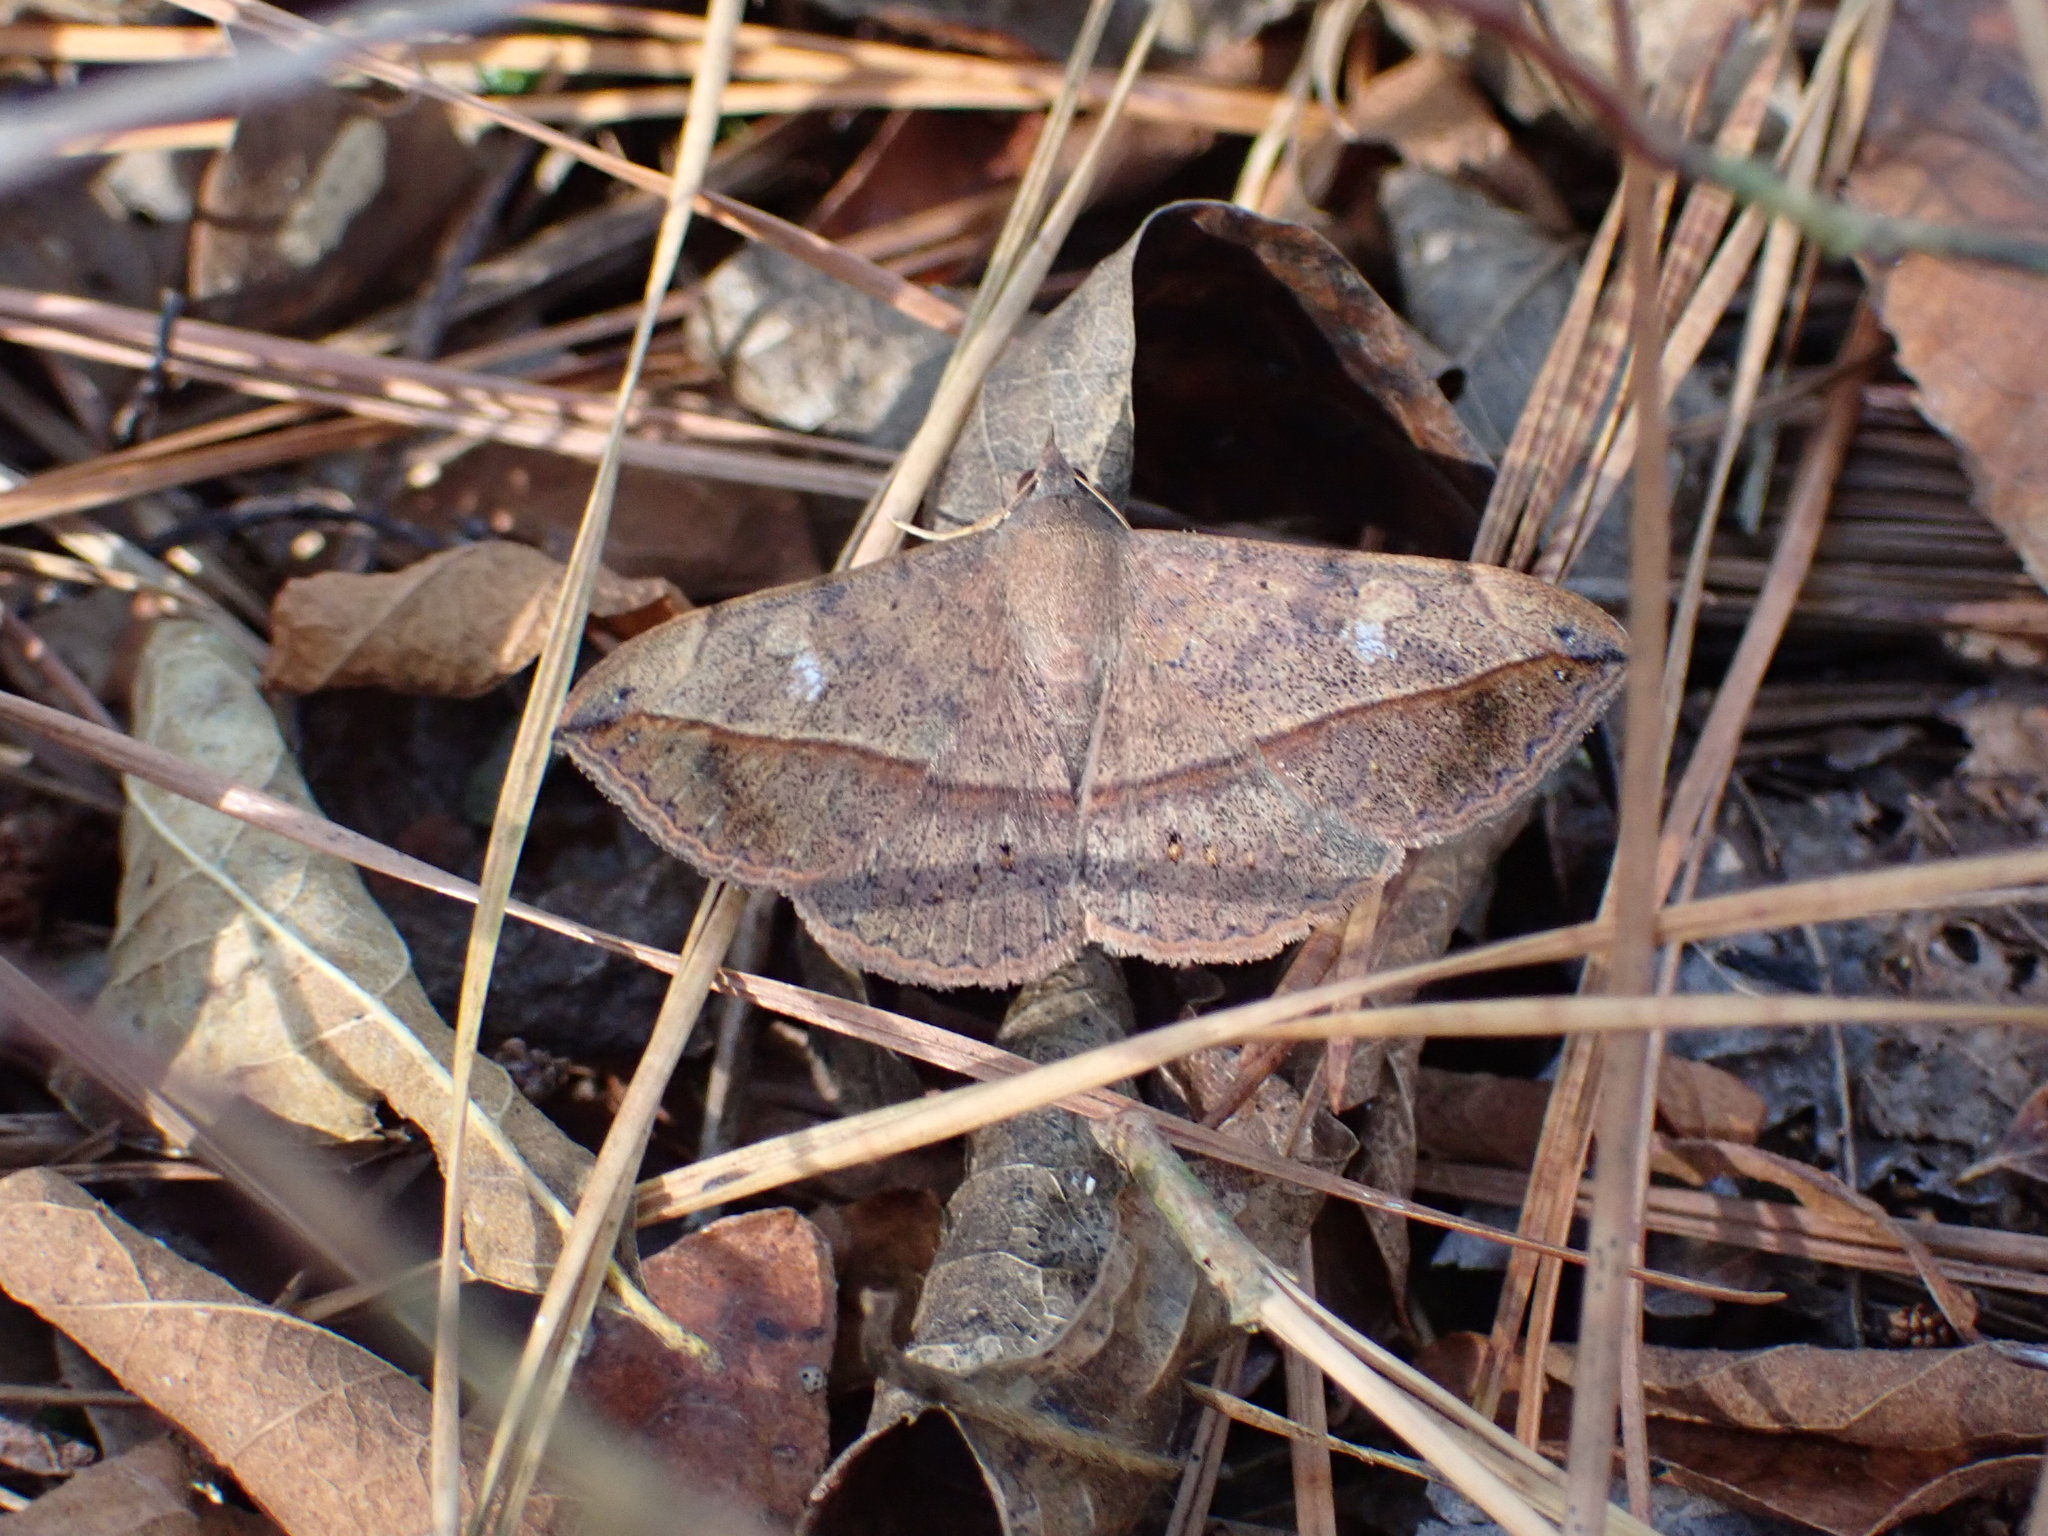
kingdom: Animalia
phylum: Arthropoda
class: Insecta
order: Lepidoptera
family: Erebidae
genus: Anticarsia
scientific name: Anticarsia gemmatalis
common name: Cutworm moth
